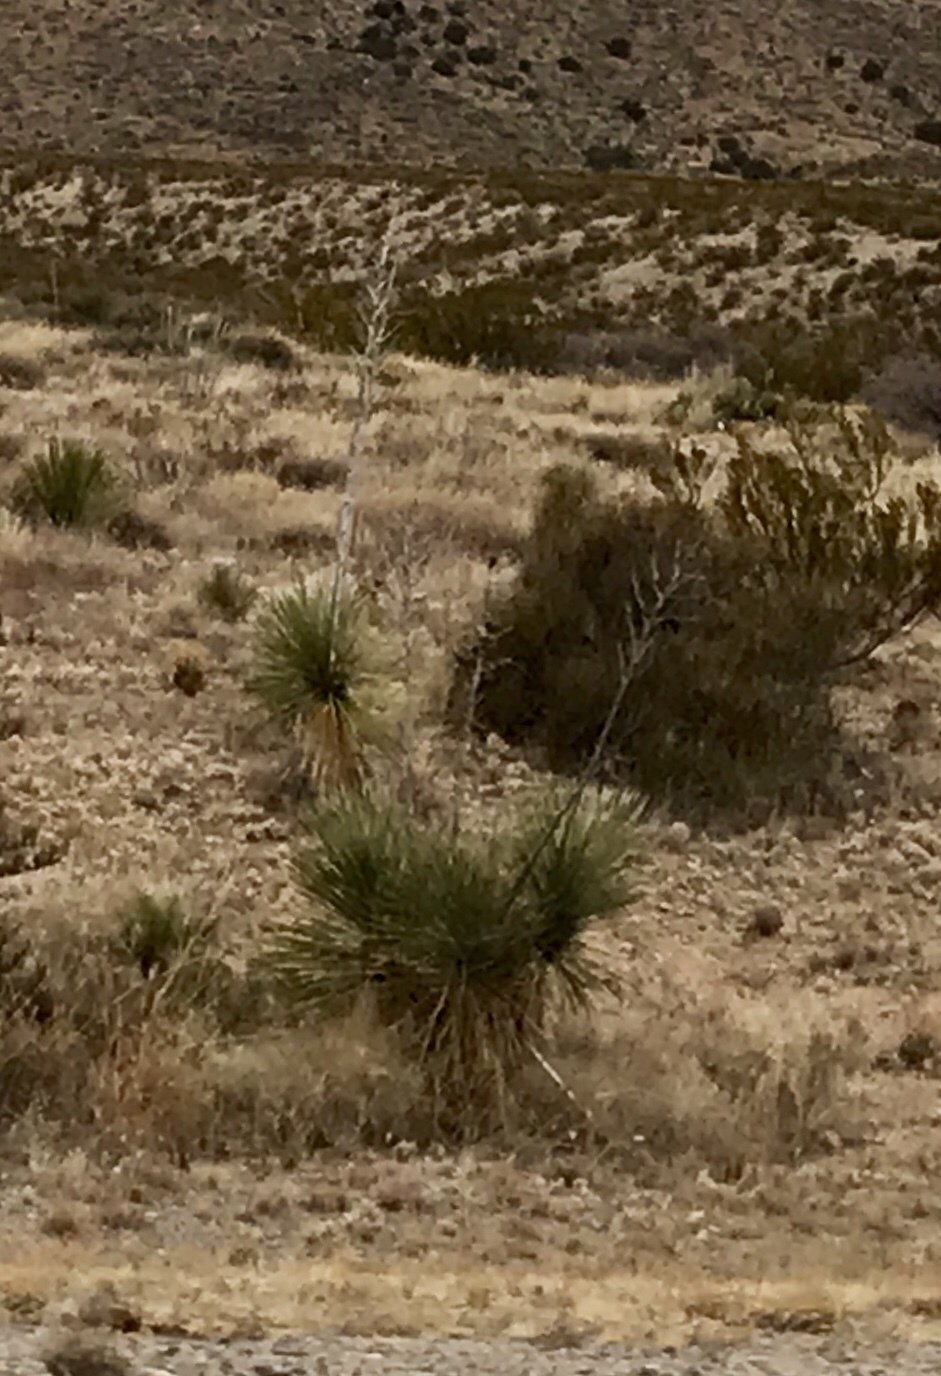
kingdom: Plantae
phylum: Tracheophyta
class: Liliopsida
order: Asparagales
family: Asparagaceae
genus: Yucca
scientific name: Yucca elata
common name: Palmella
